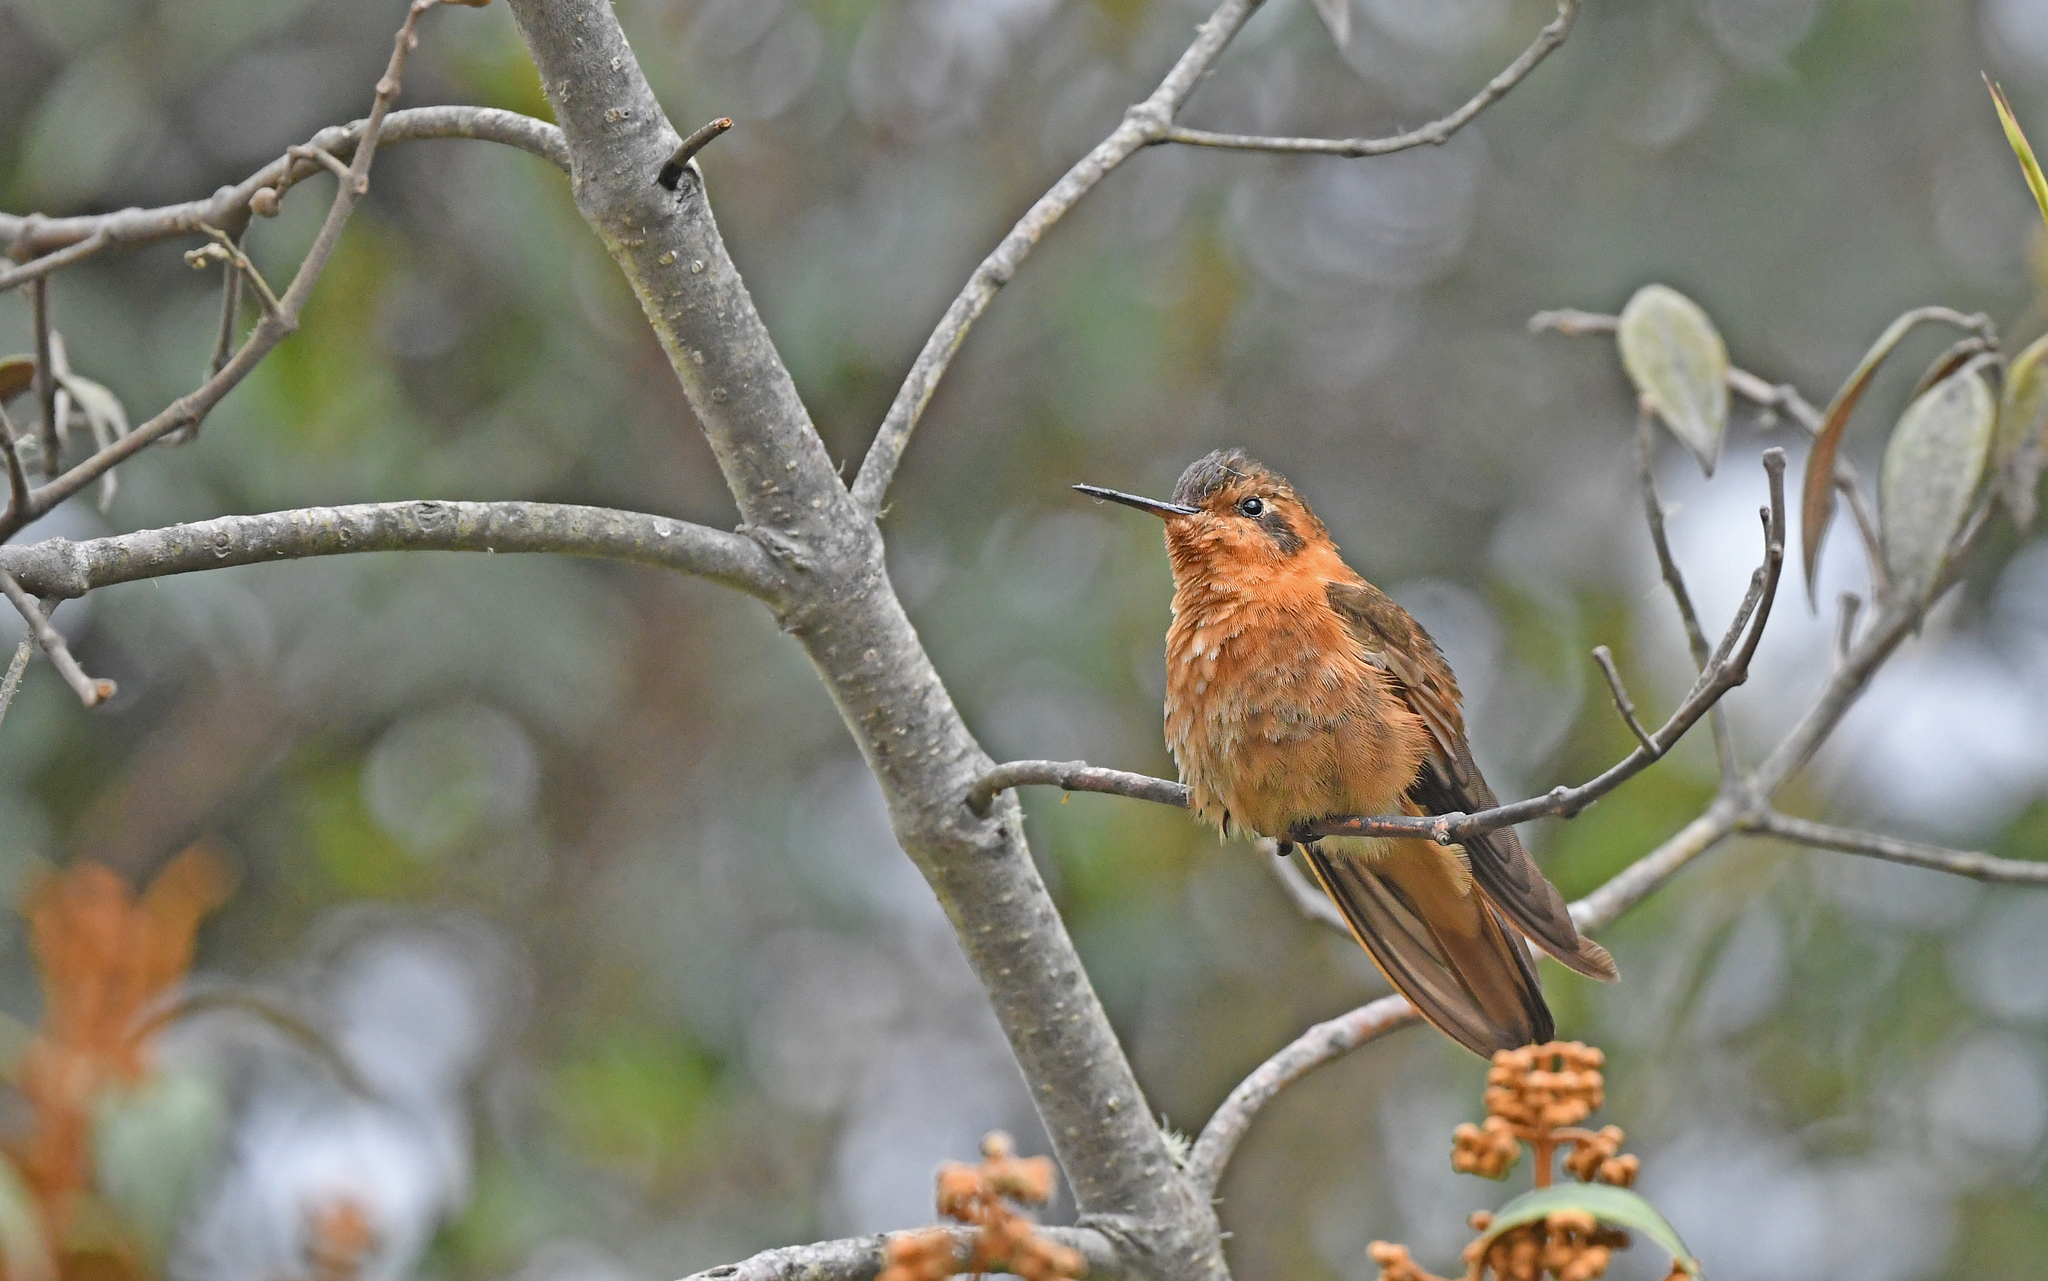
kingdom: Animalia
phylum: Chordata
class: Aves
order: Apodiformes
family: Trochilidae
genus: Aglaeactis
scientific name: Aglaeactis cupripennis
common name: Shining sunbeam
